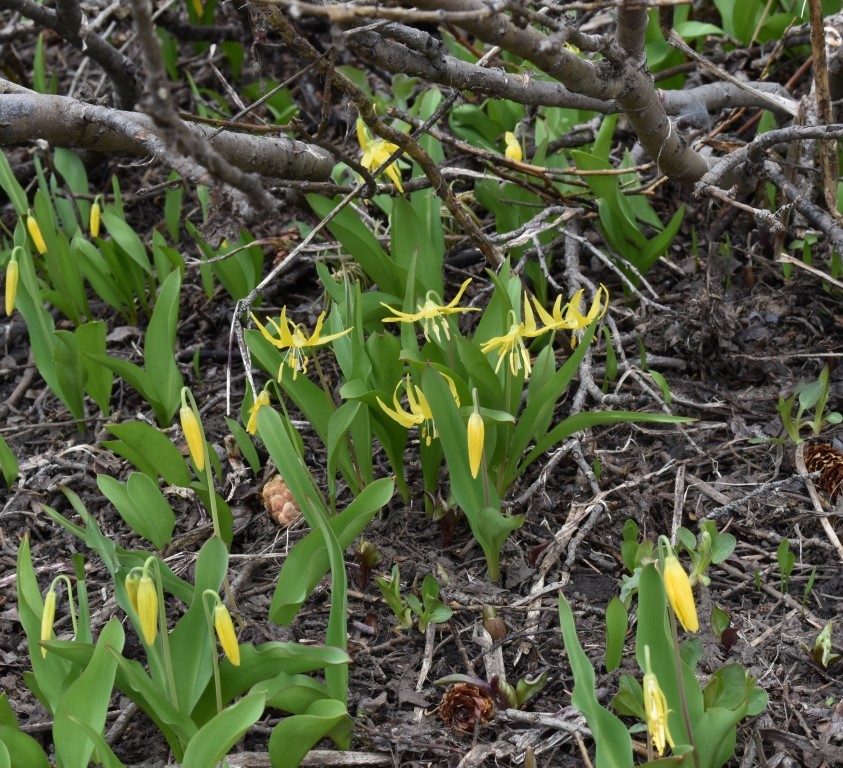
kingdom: Plantae
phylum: Tracheophyta
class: Liliopsida
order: Liliales
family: Liliaceae
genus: Erythronium
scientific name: Erythronium grandiflorum
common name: Avalanche-lily
